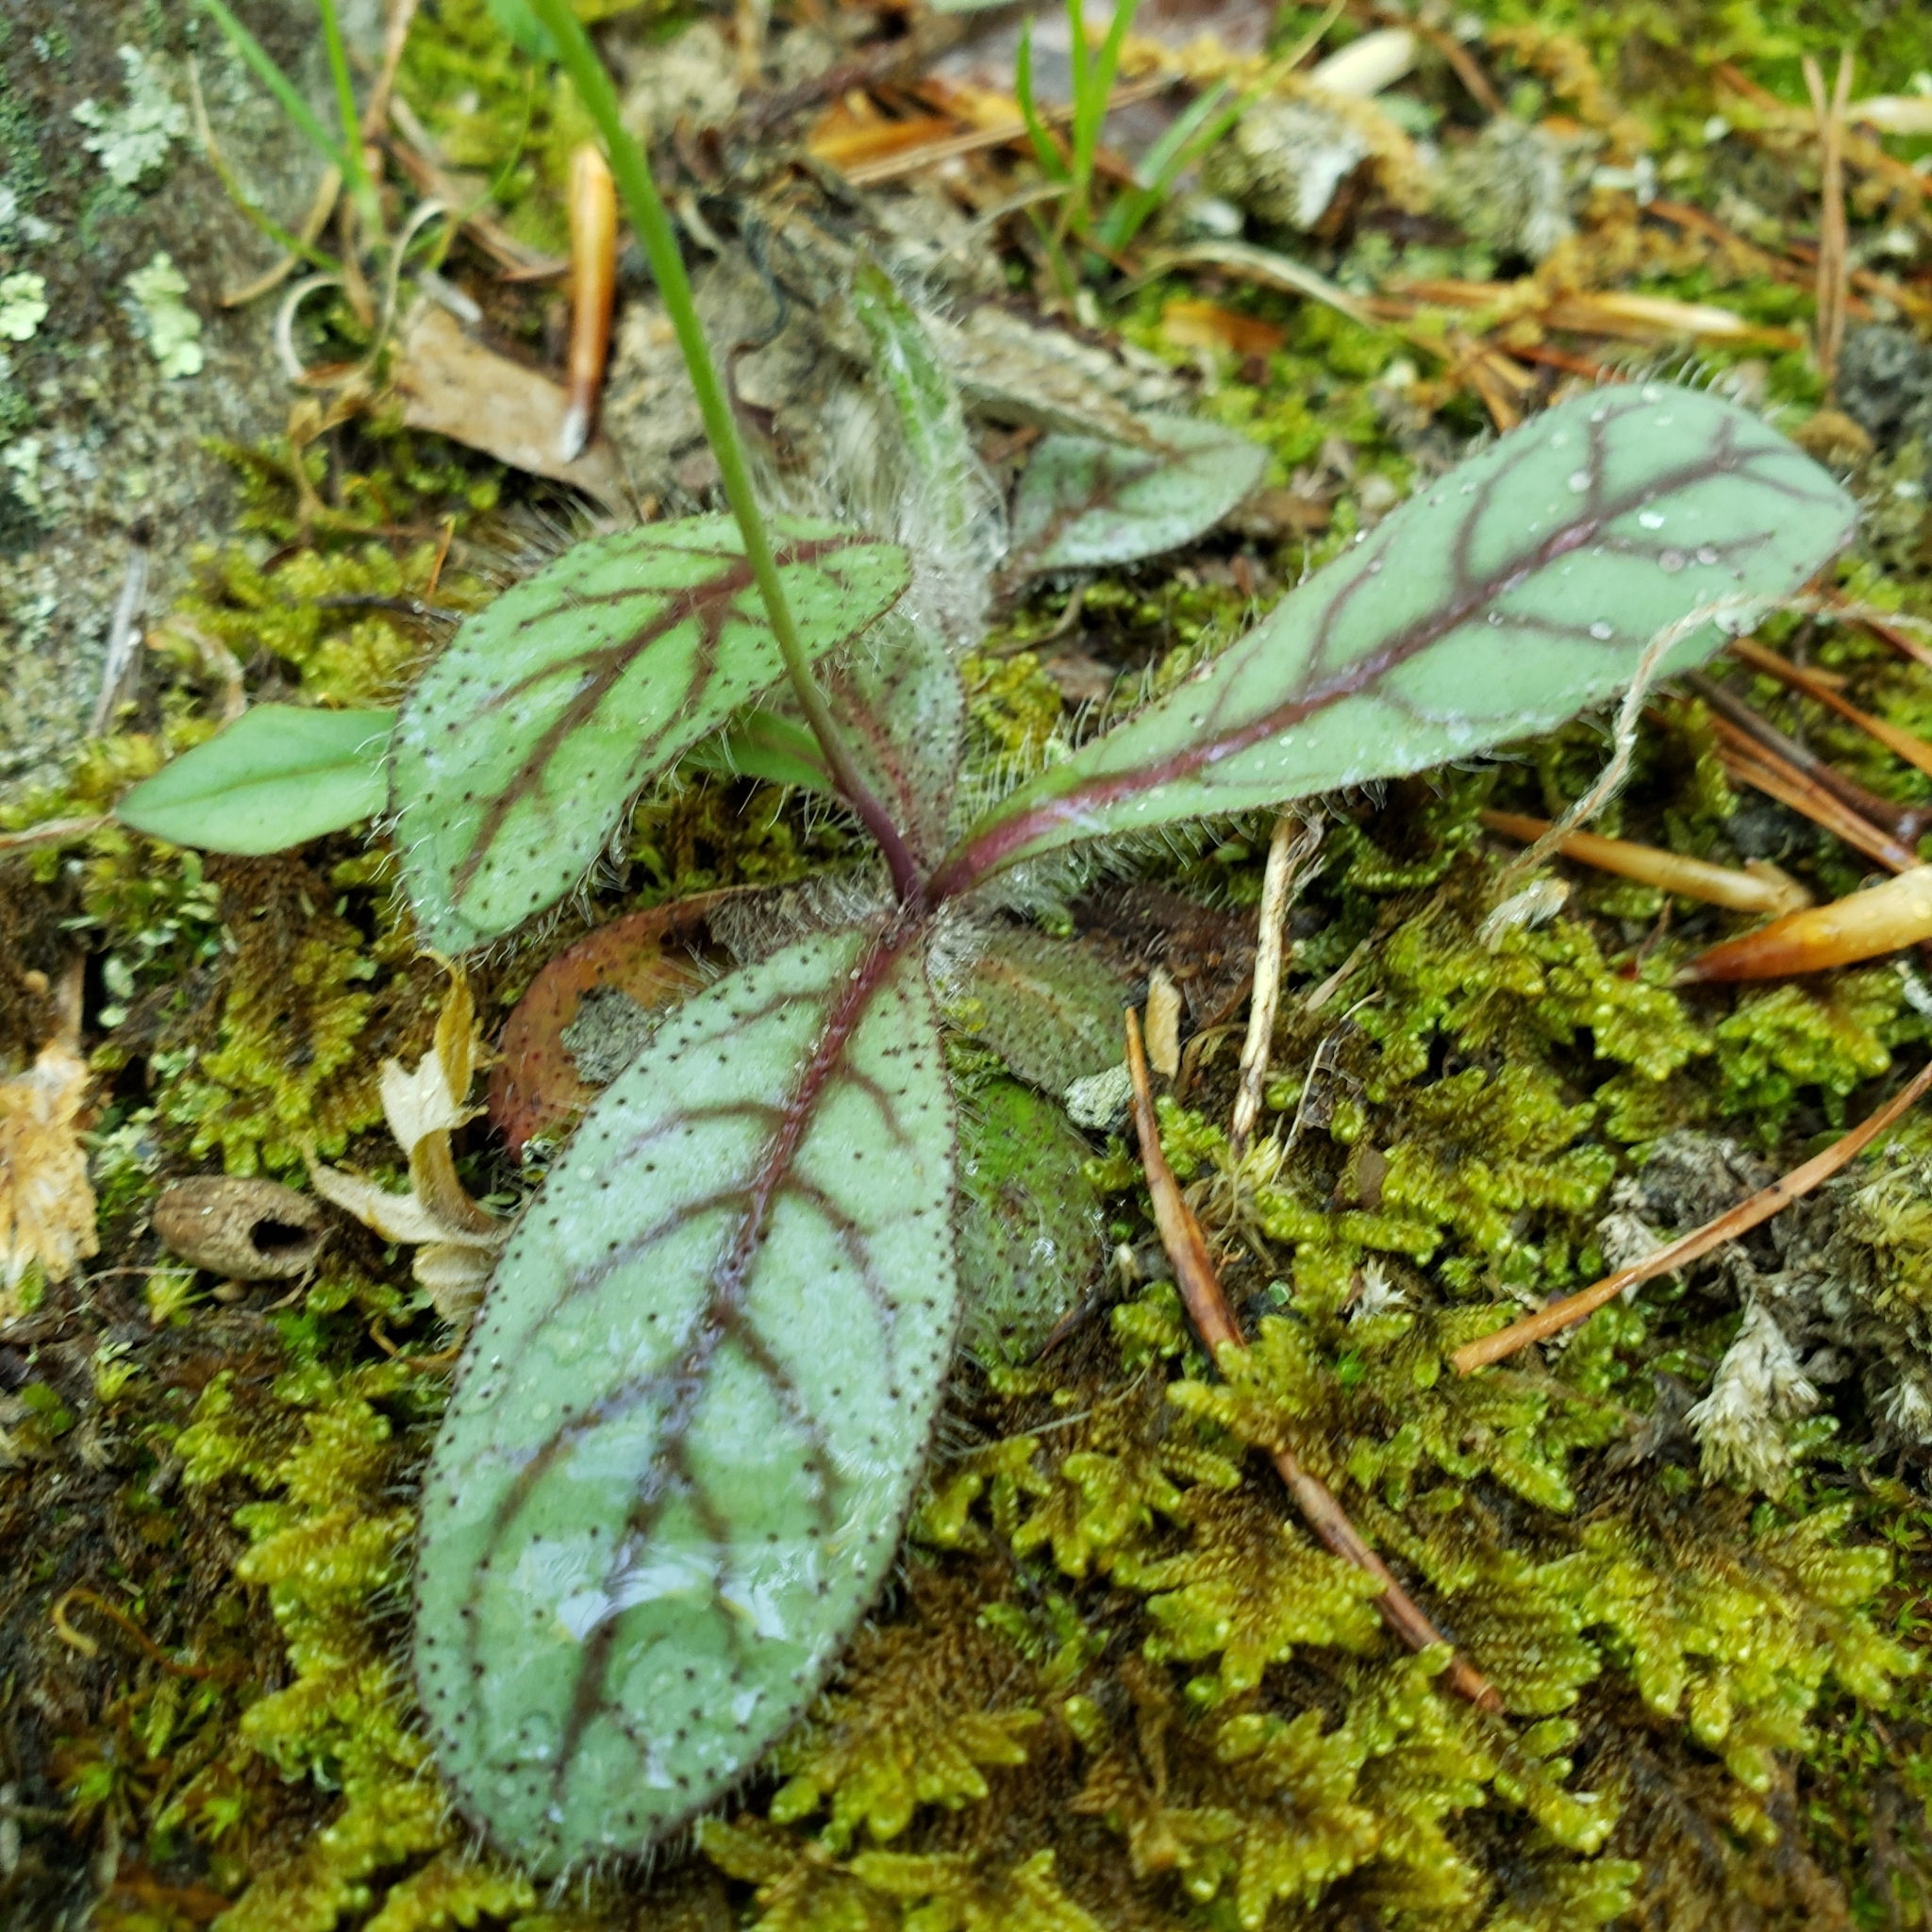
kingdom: Plantae
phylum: Tracheophyta
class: Magnoliopsida
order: Asterales
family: Asteraceae
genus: Hieracium
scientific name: Hieracium venosum
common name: Rattlesnake hawkweed
